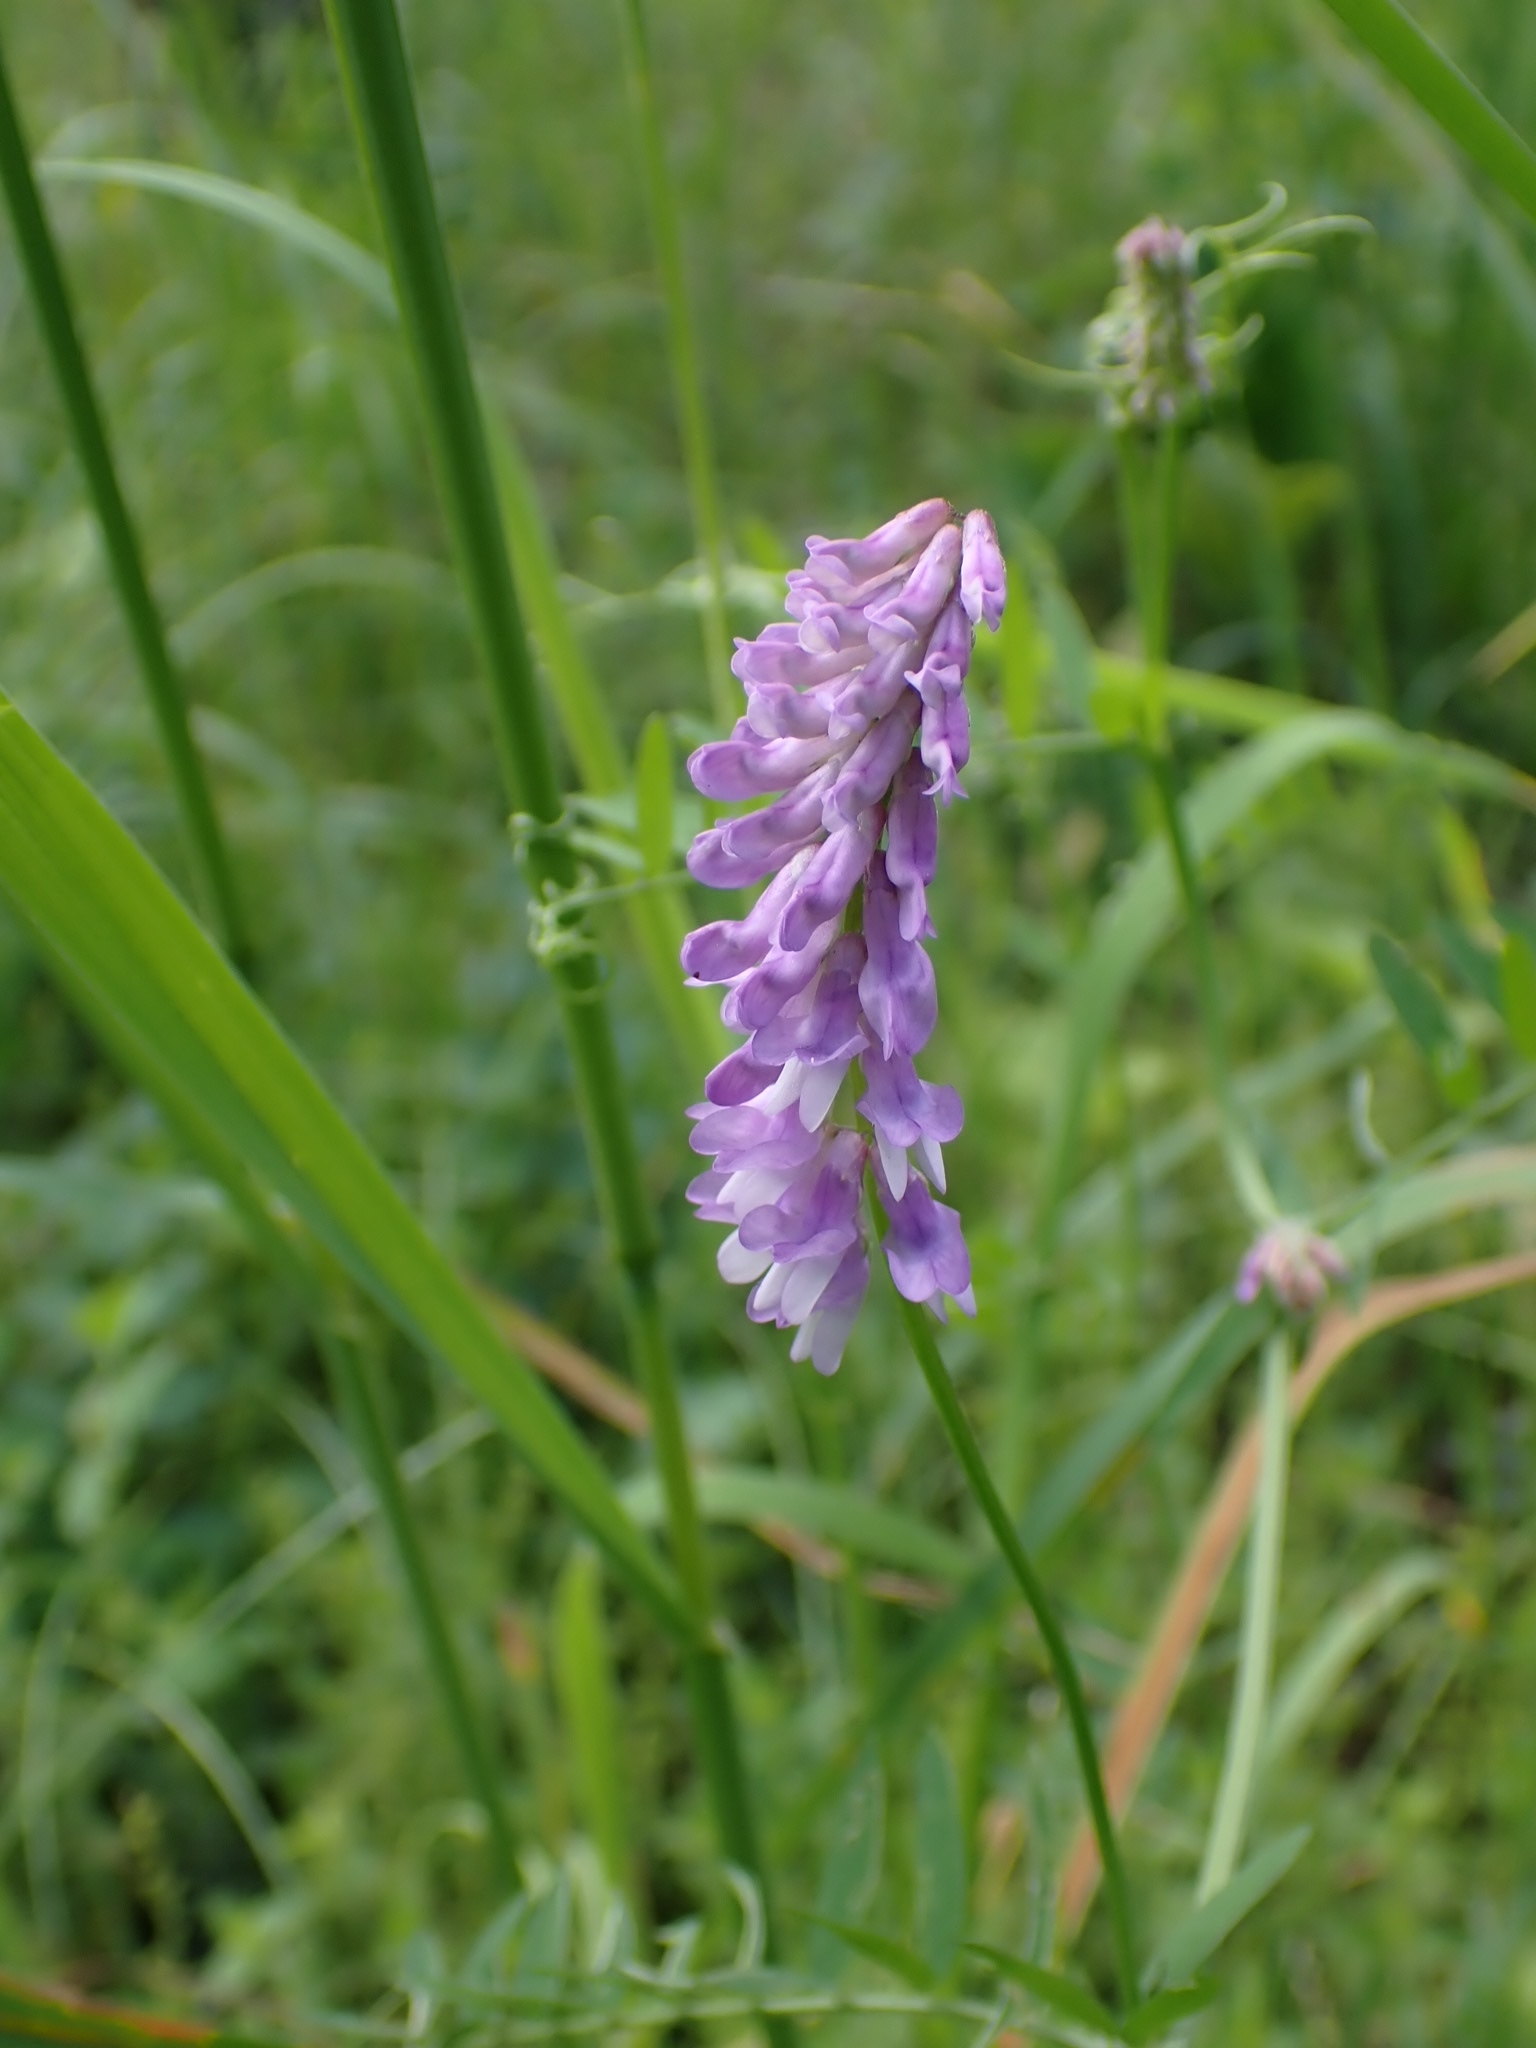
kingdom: Plantae
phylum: Tracheophyta
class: Magnoliopsida
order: Fabales
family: Fabaceae
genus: Vicia
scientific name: Vicia cracca
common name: Bird vetch
